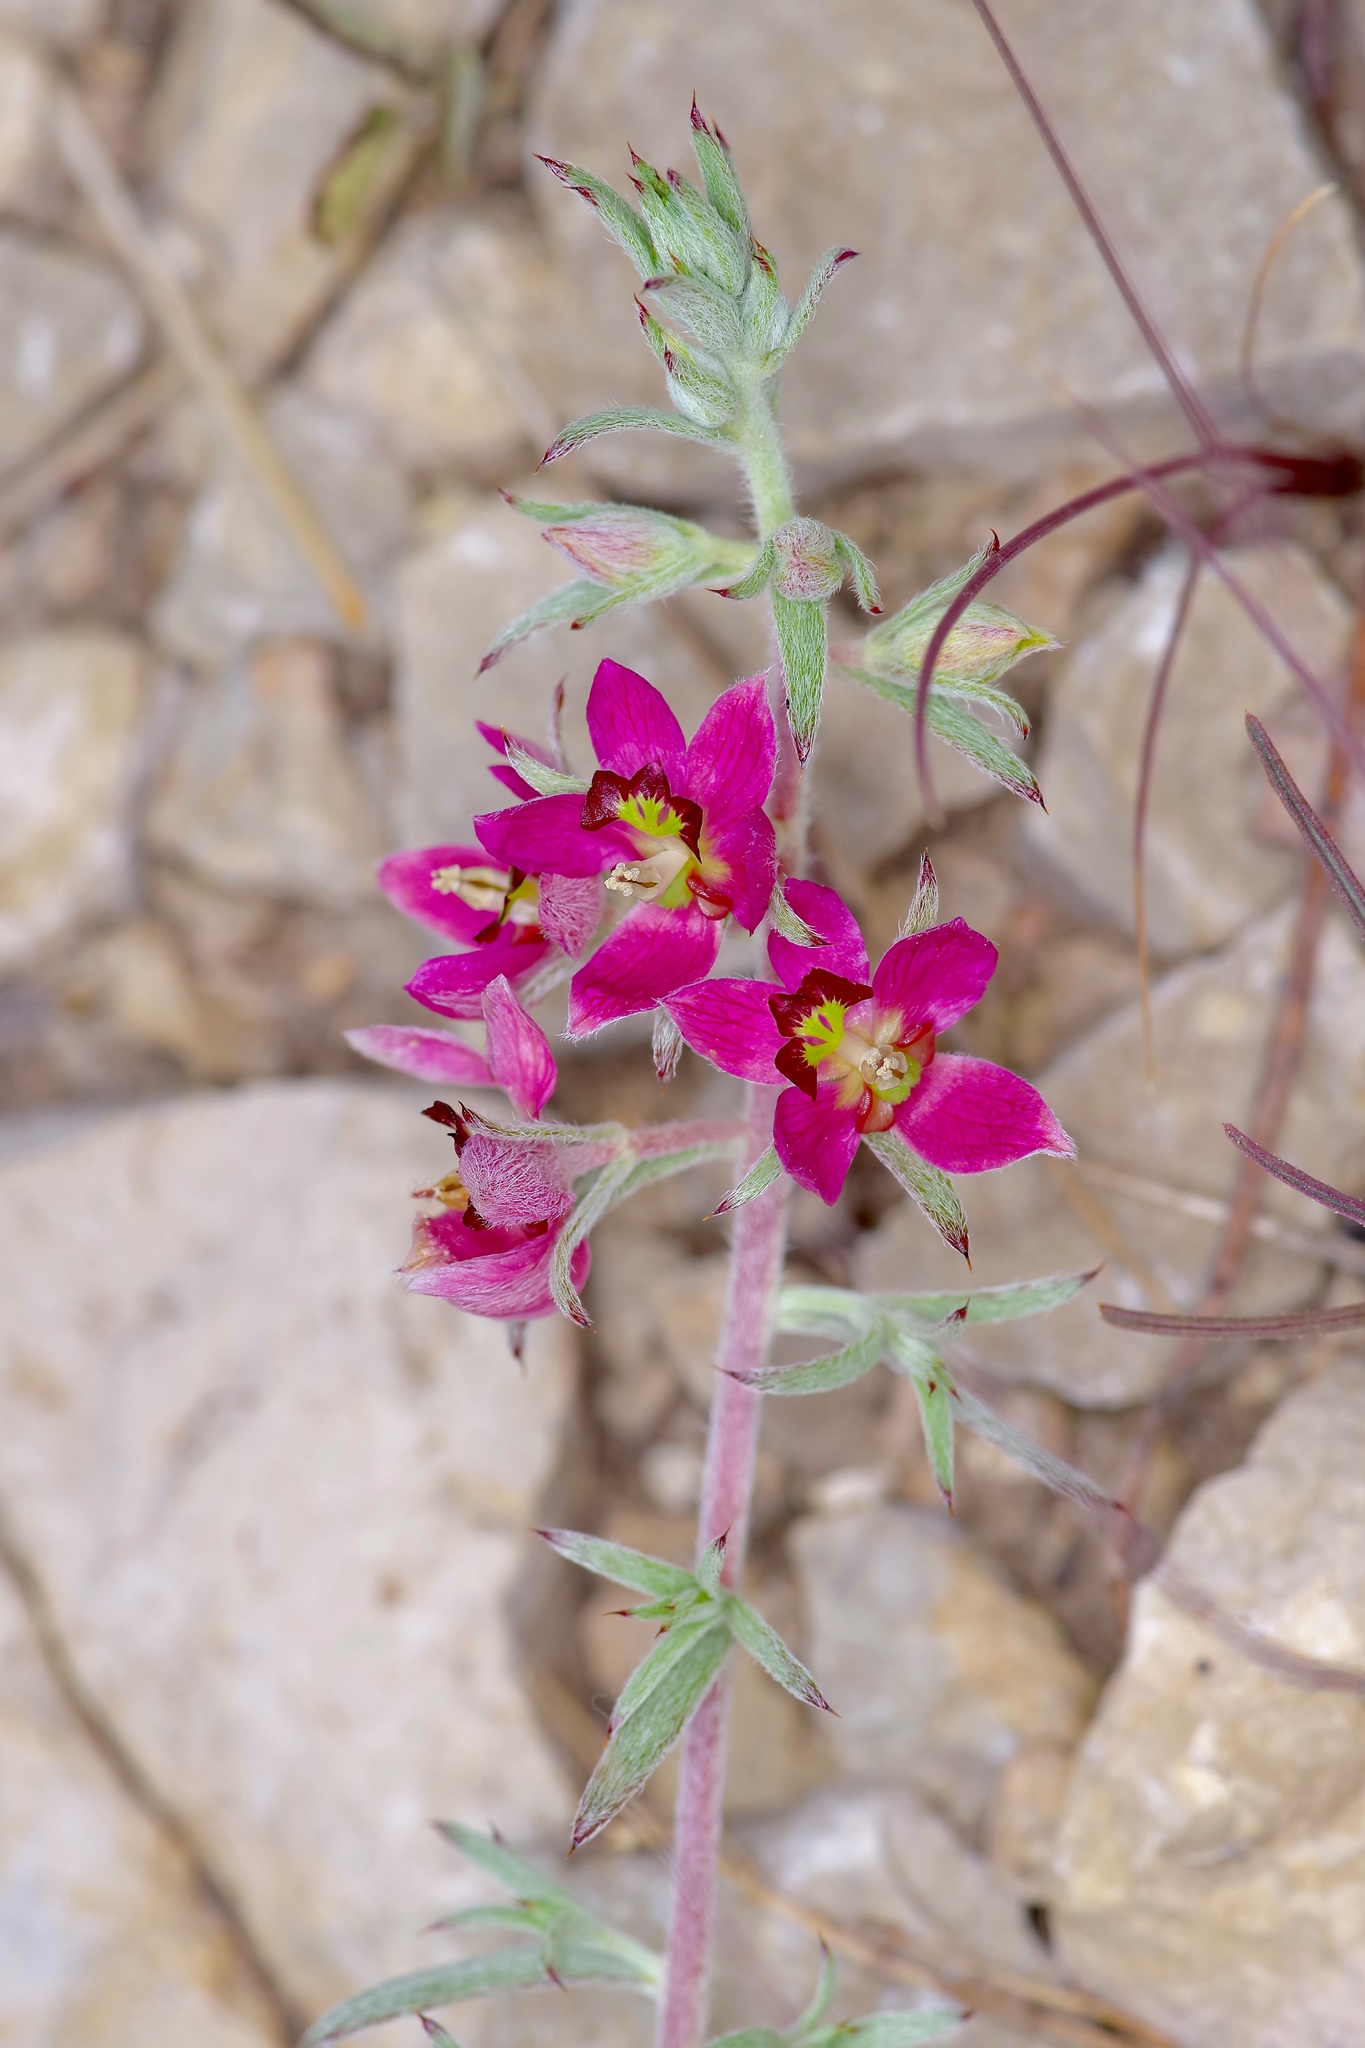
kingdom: Plantae
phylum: Tracheophyta
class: Magnoliopsida
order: Zygophyllales
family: Krameriaceae
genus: Krameria
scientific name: Krameria lanceolata
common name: Ratany
